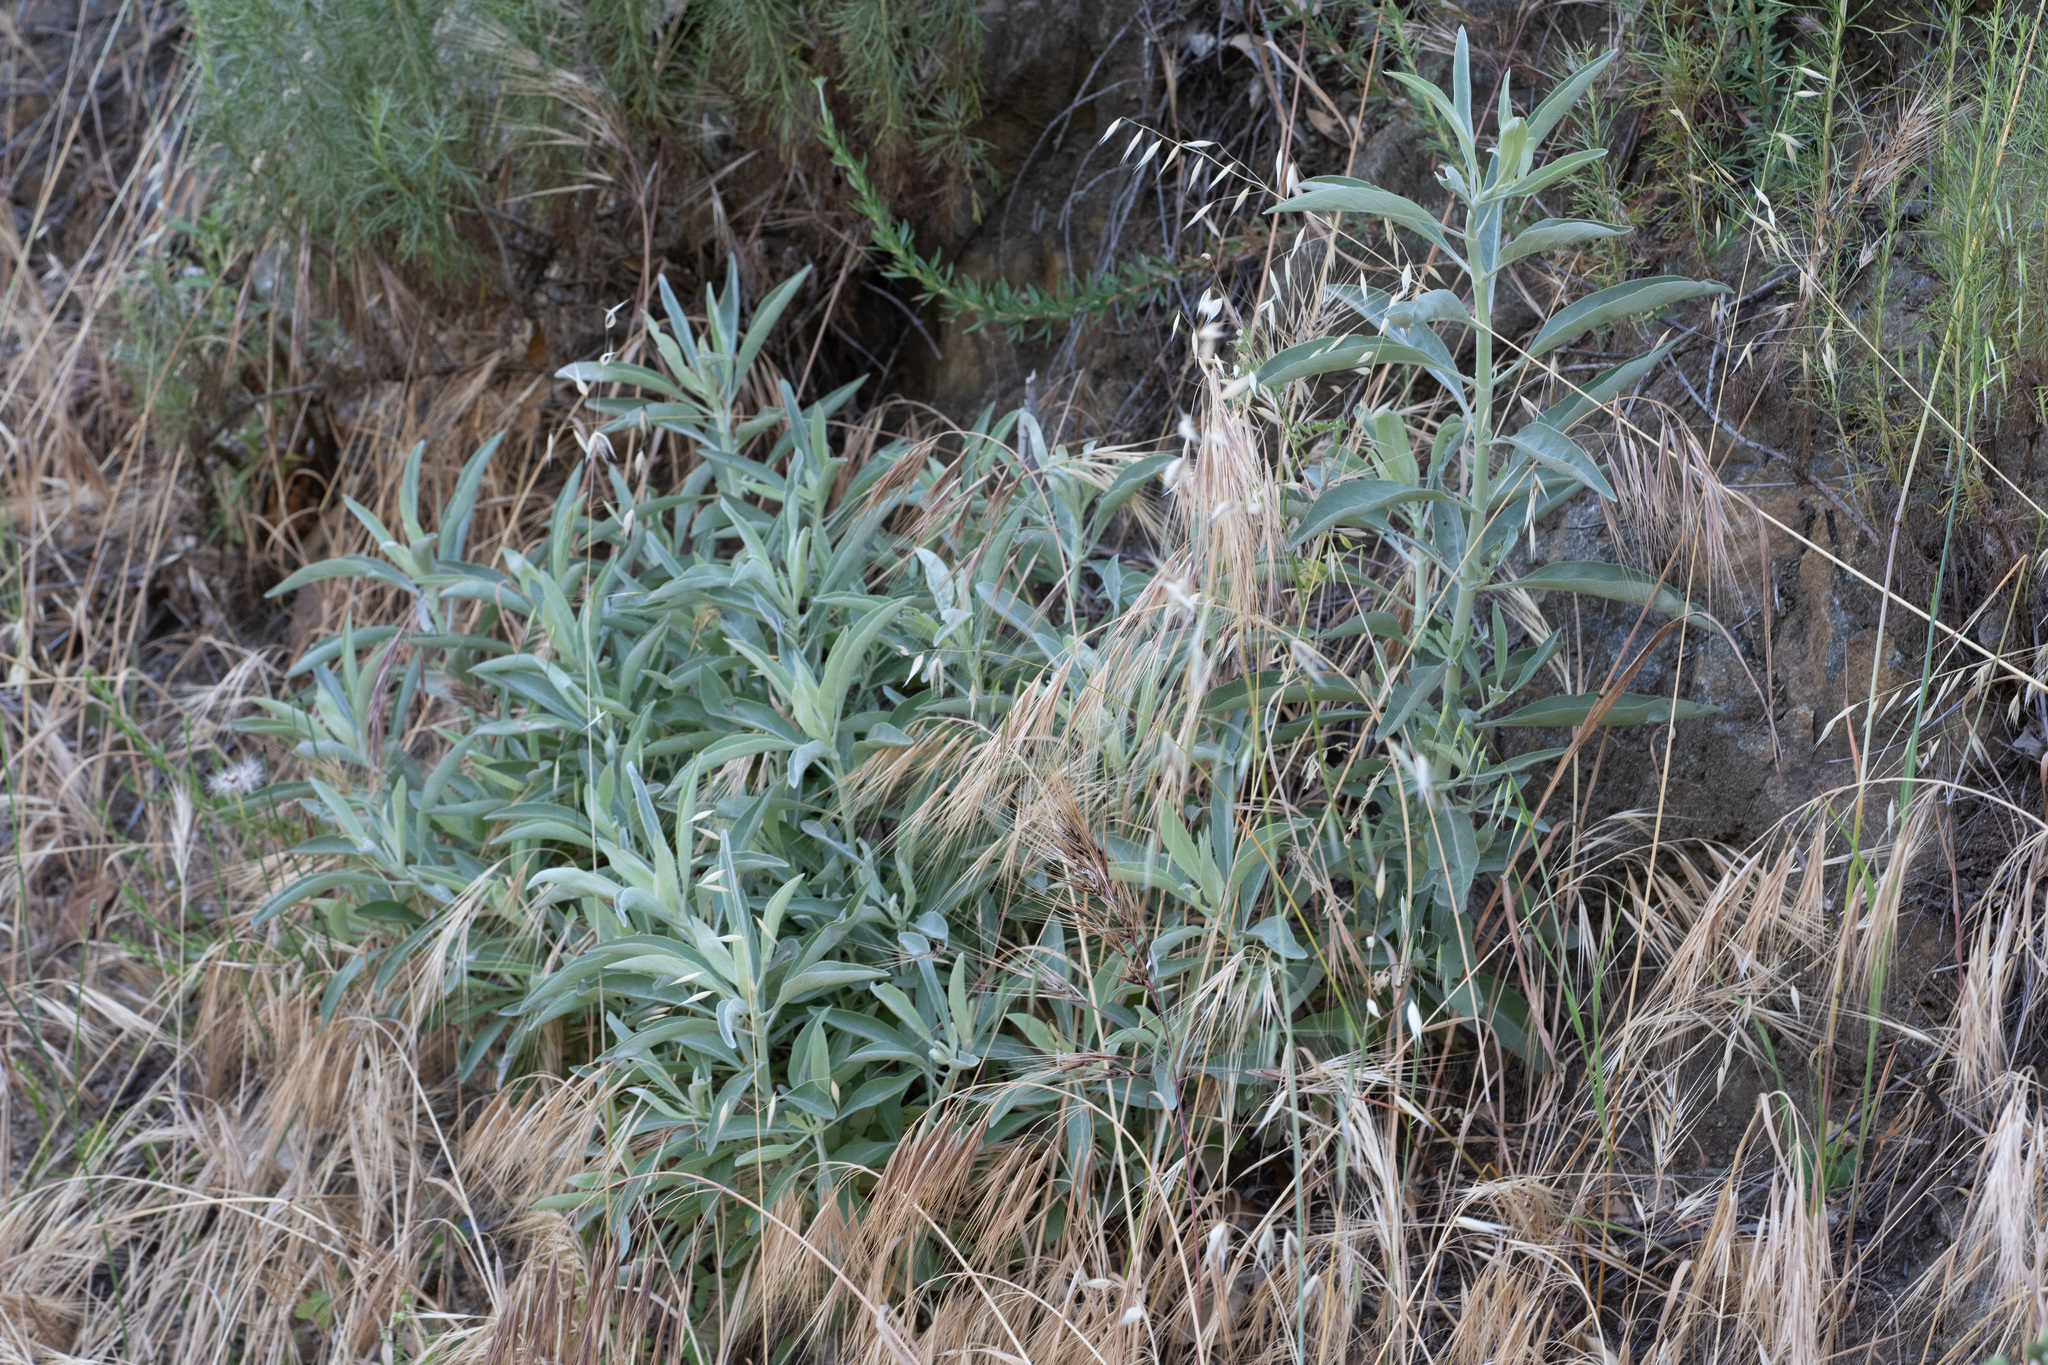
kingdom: Plantae
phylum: Tracheophyta
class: Magnoliopsida
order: Lamiales
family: Lamiaceae
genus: Salvia
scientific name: Salvia apiana
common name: White sage
